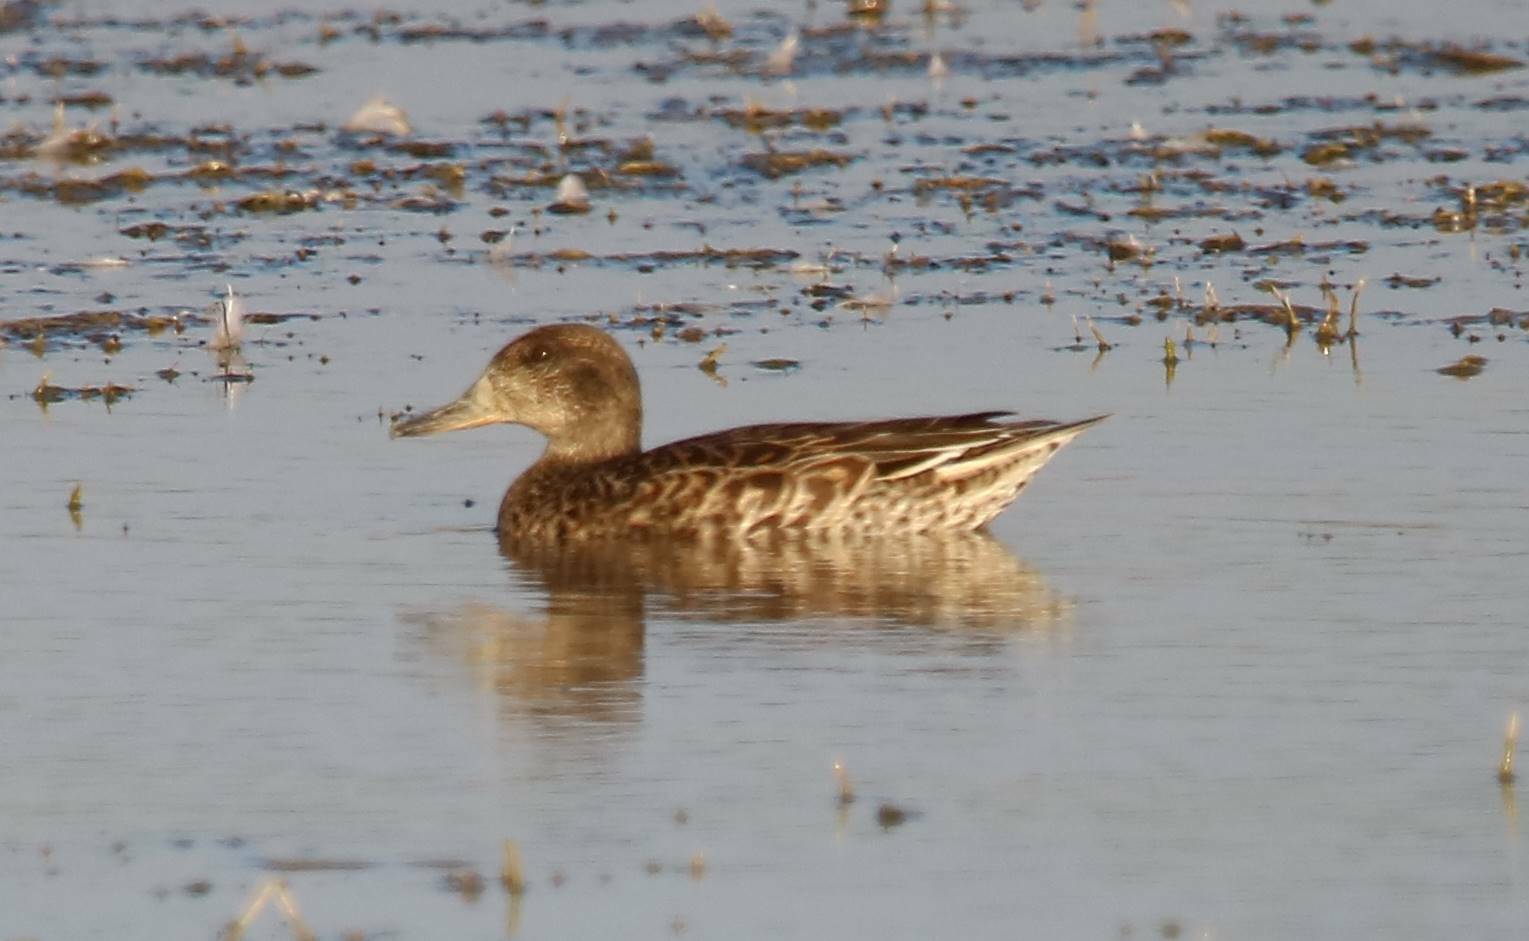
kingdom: Animalia
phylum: Chordata
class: Aves
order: Anseriformes
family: Anatidae
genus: Anas
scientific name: Anas crecca
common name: Eurasian teal
